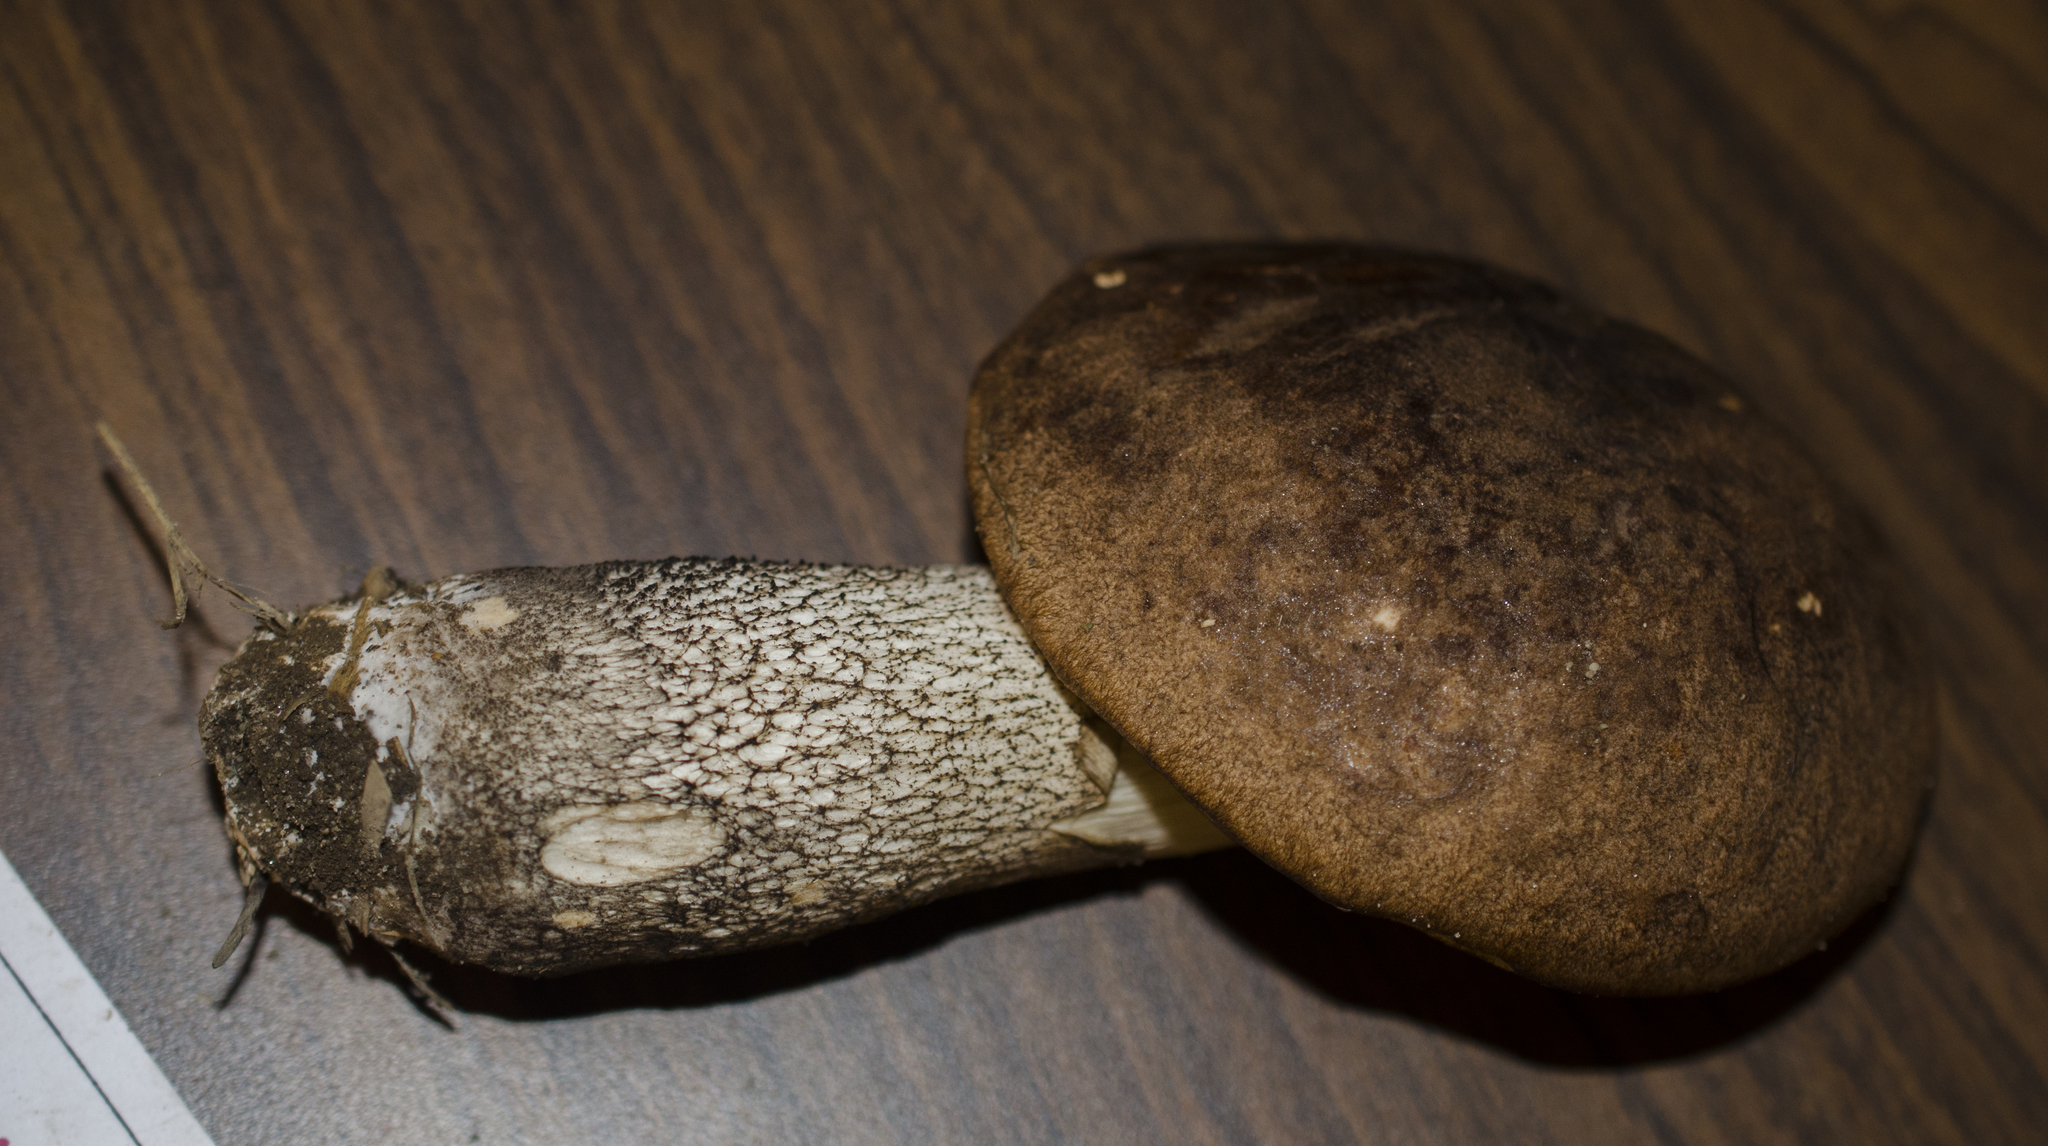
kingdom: Fungi
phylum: Basidiomycota
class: Agaricomycetes
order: Boletales
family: Boletaceae
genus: Leccinum
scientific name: Leccinum scabrum
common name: Blushing bolete
